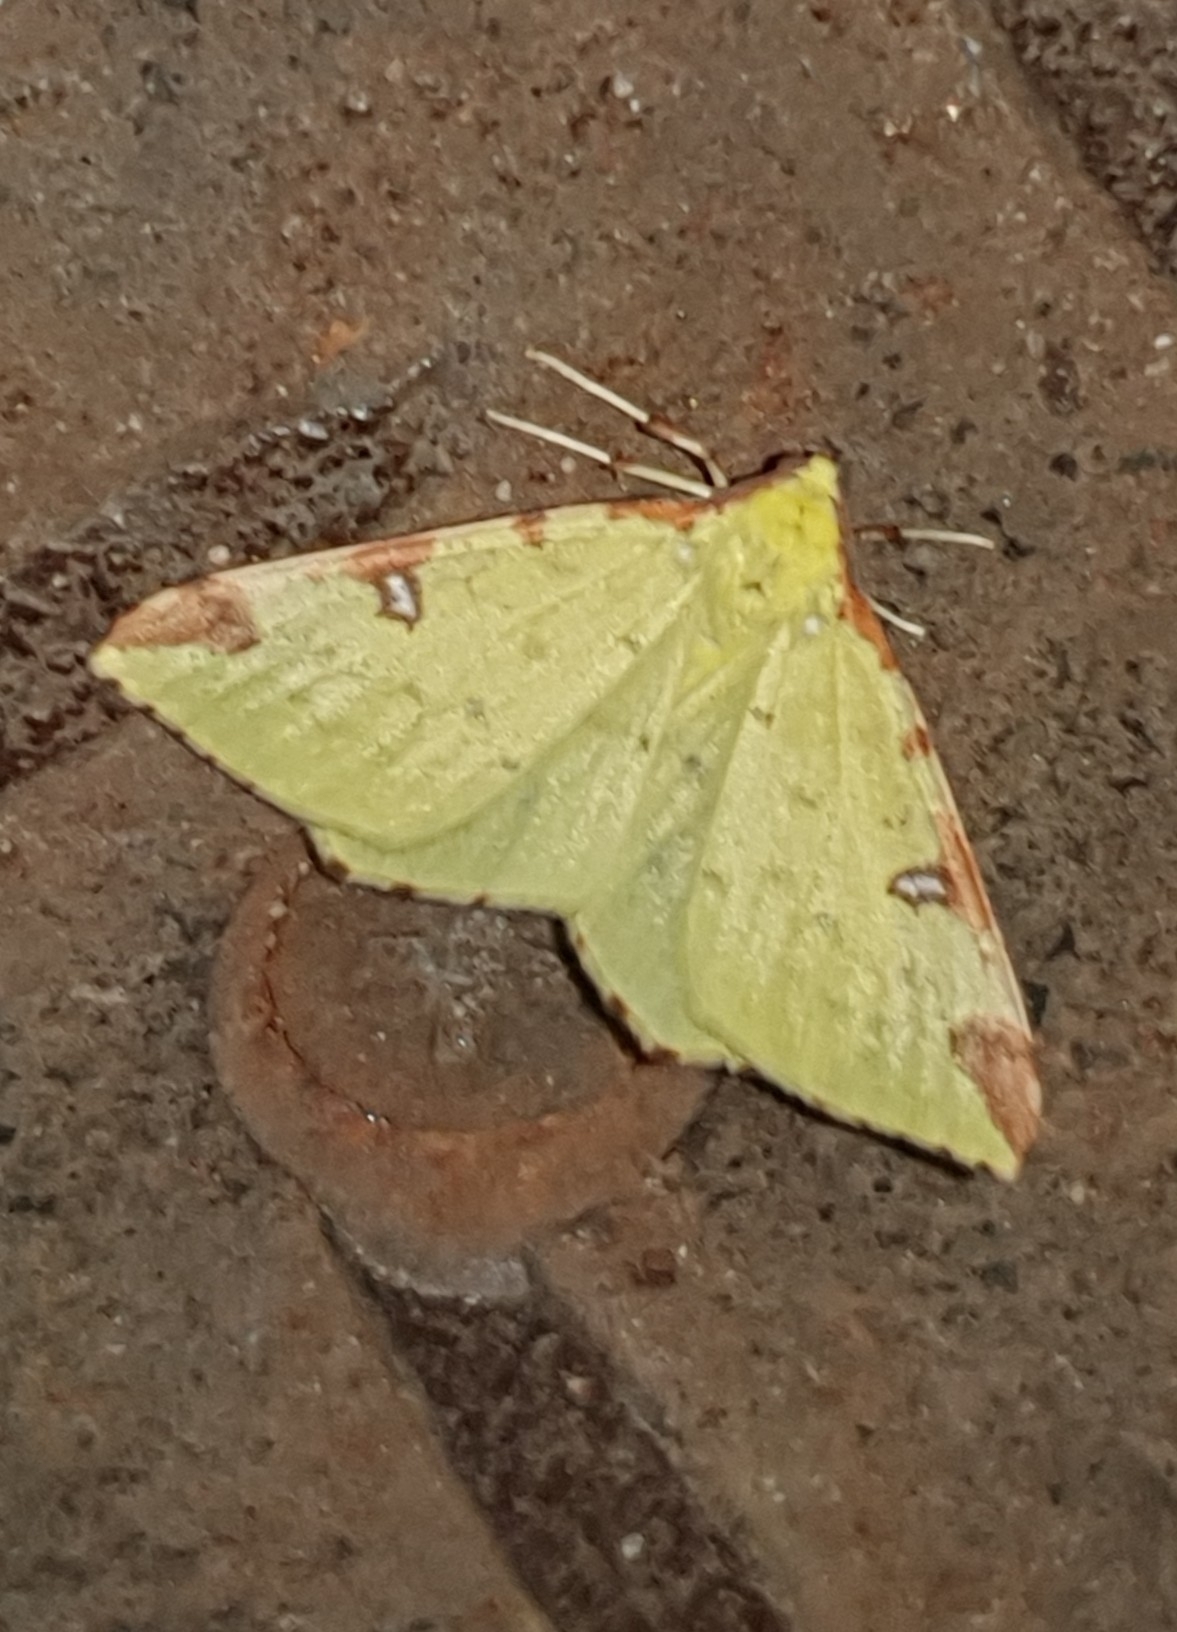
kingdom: Animalia
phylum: Arthropoda
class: Insecta
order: Lepidoptera
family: Geometridae
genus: Opisthograptis
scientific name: Opisthograptis luteolata
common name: Brimstone moth
